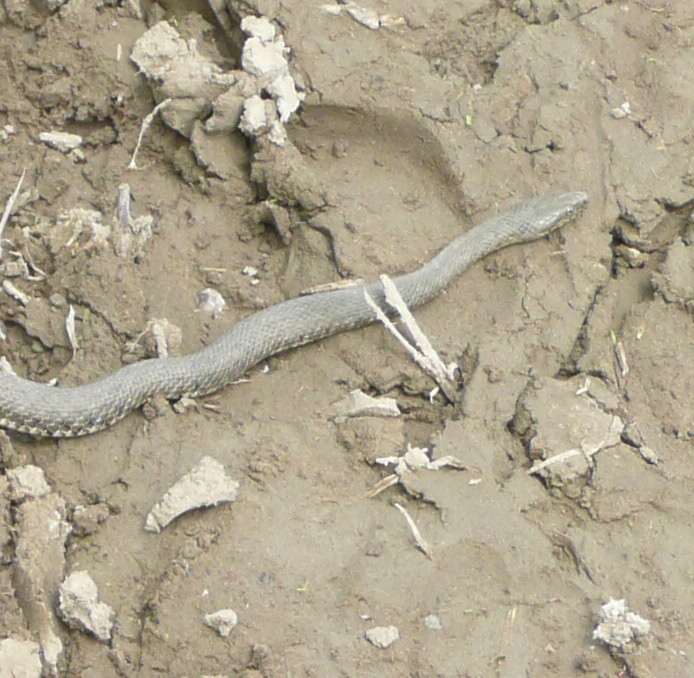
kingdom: Animalia
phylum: Chordata
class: Squamata
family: Colubridae
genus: Natrix
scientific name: Natrix tessellata
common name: Dice snake
